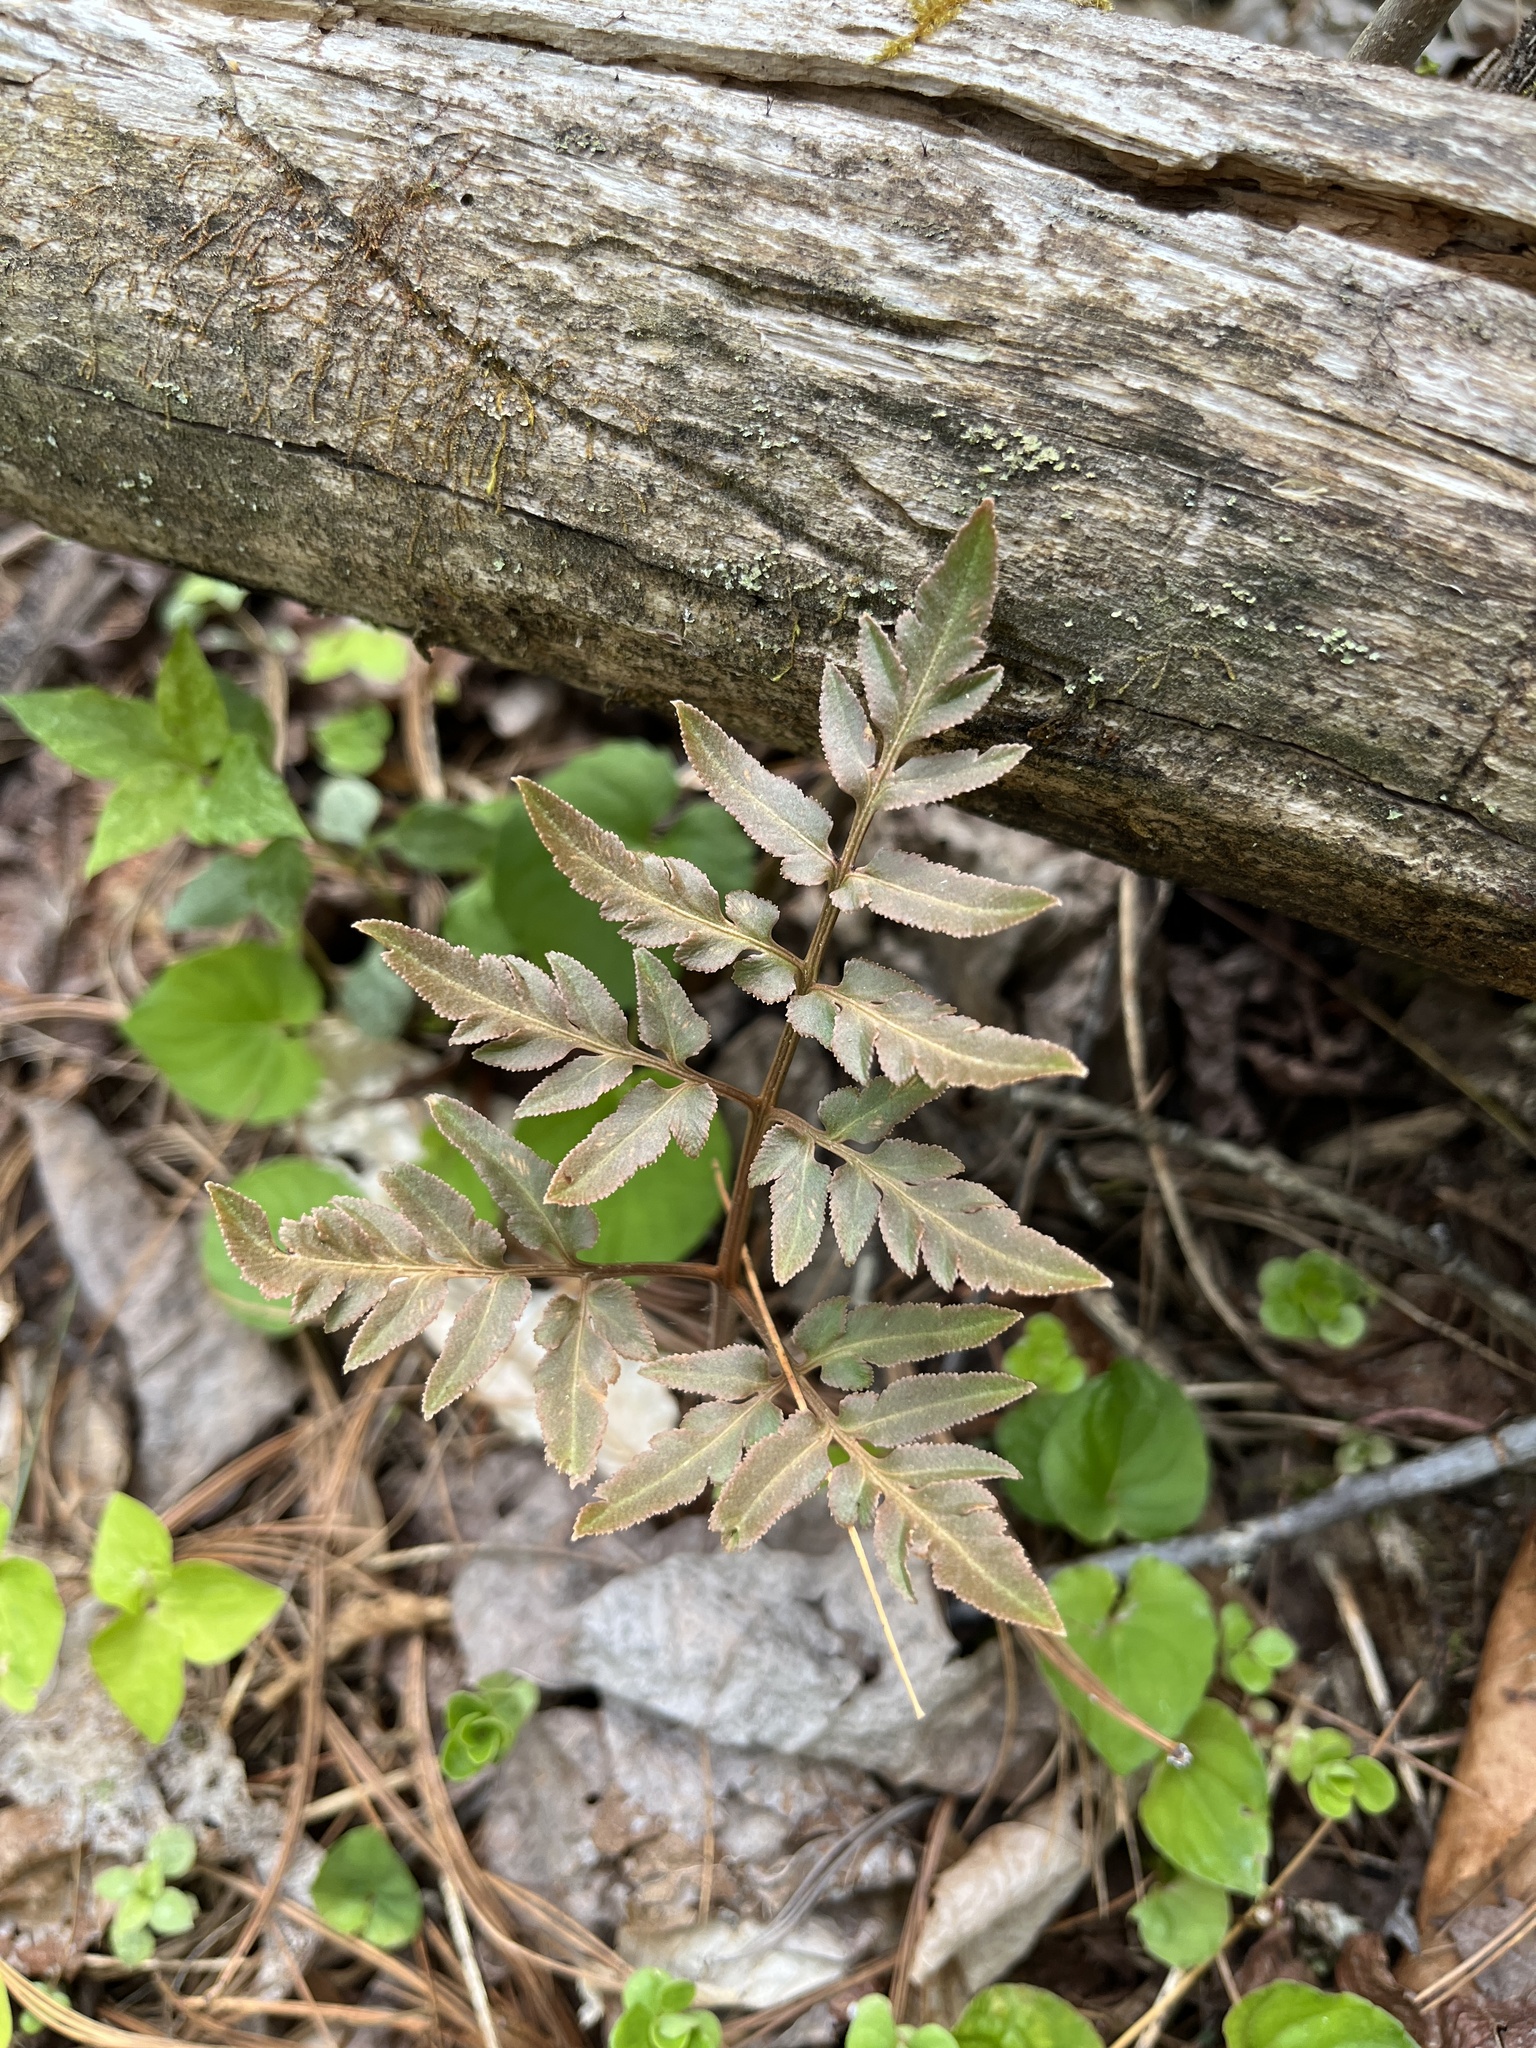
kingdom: Plantae
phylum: Tracheophyta
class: Polypodiopsida
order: Ophioglossales
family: Ophioglossaceae
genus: Sceptridium
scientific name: Sceptridium dissectum
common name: Cut-leaved grapefern
